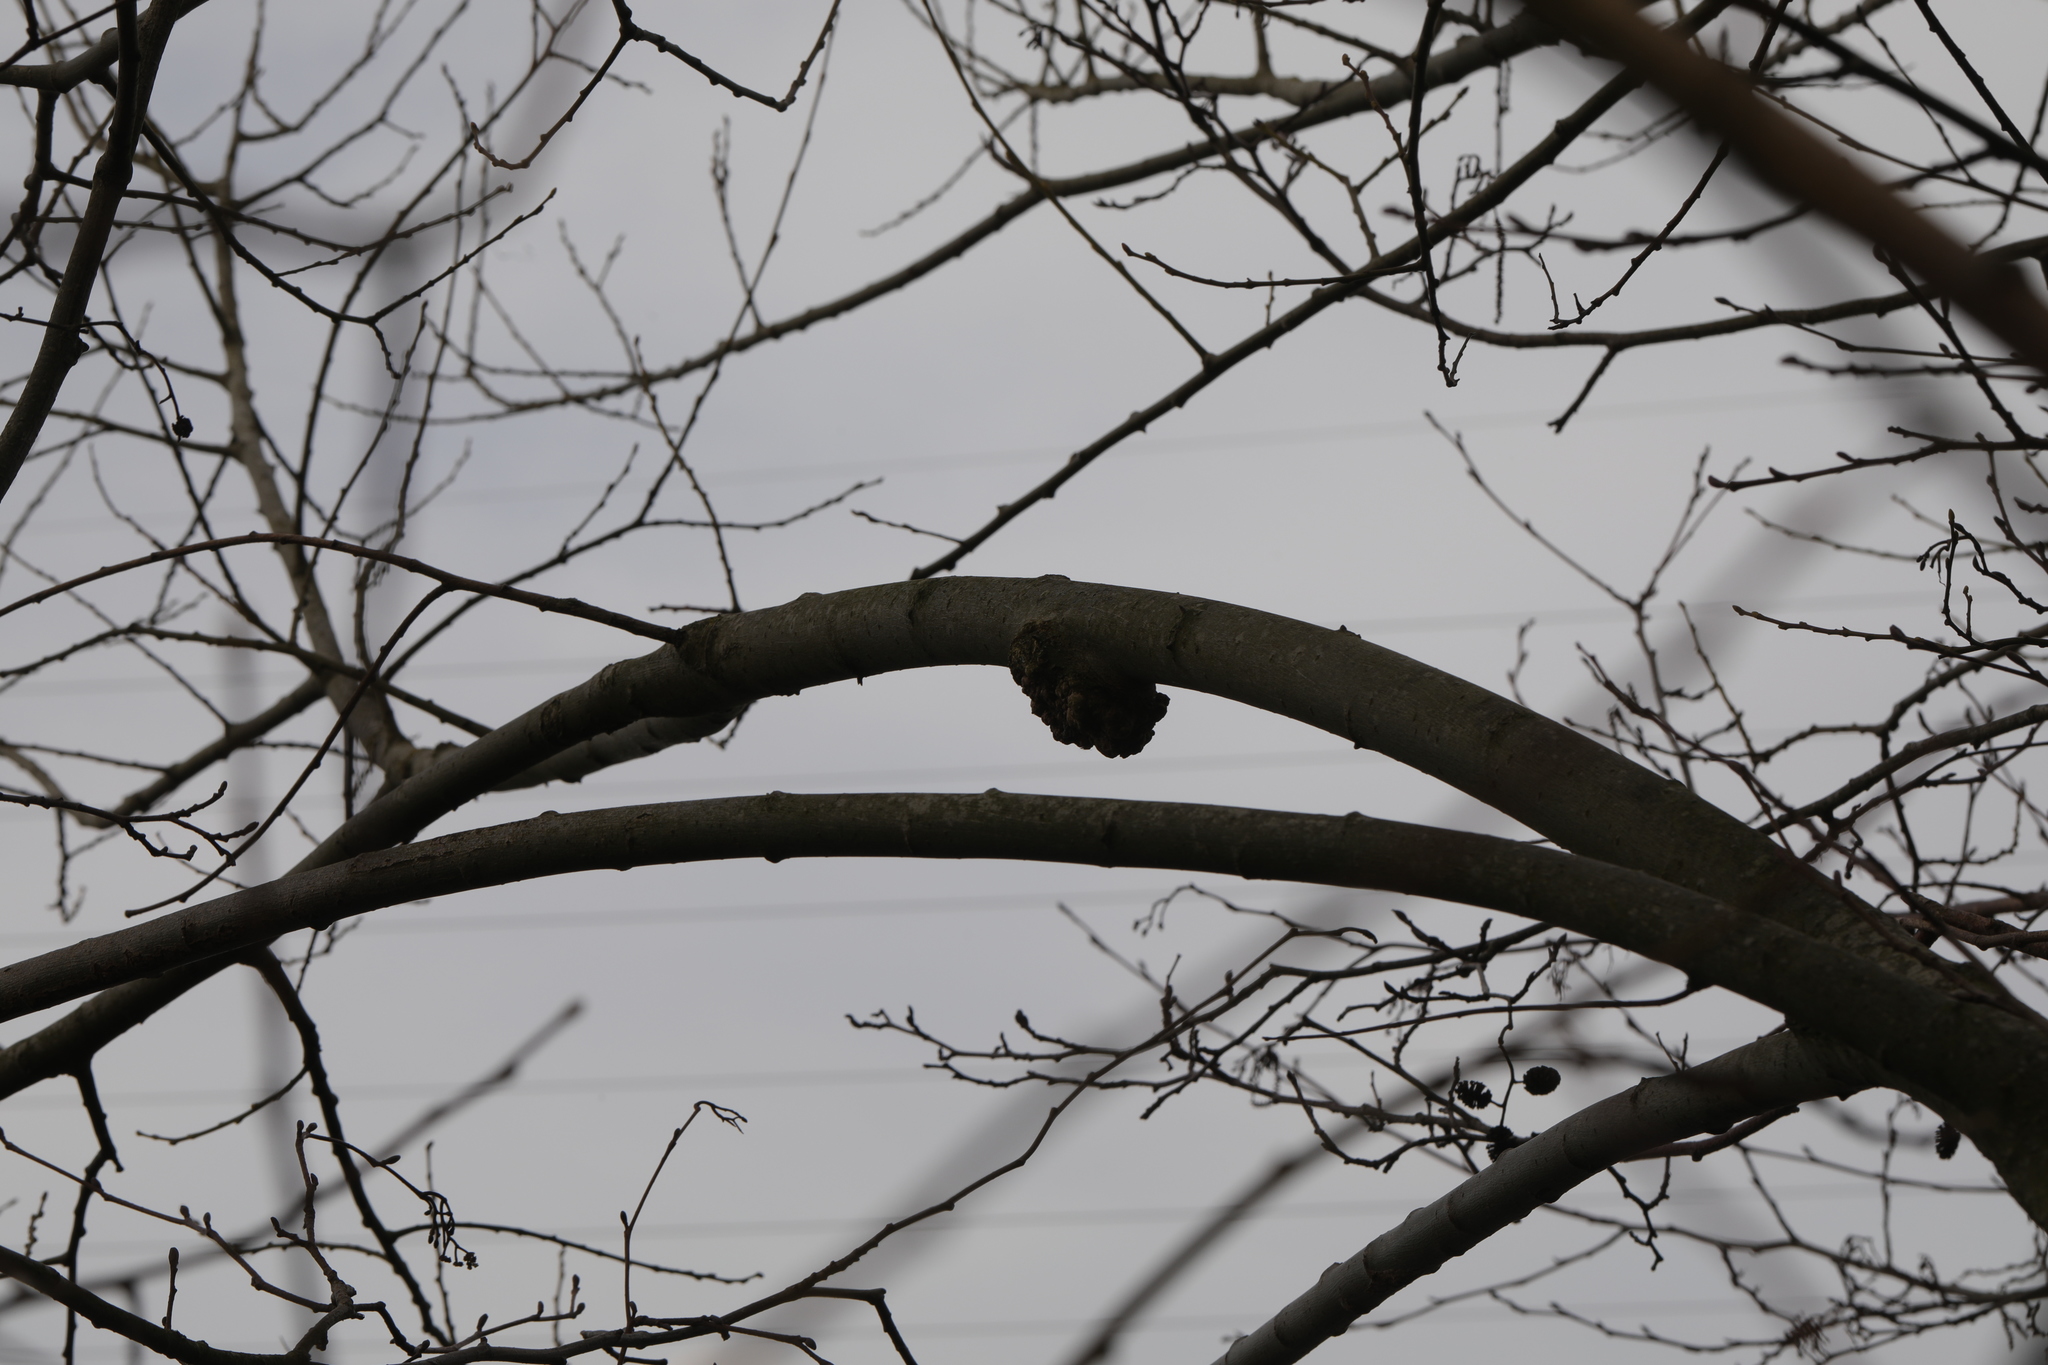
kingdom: Bacteria
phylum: Proteobacteria
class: Alphaproteobacteria
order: Rhizobiales
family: Rhizobiaceae
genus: Rhizobium
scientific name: Rhizobium Agrobacterium radiobacter
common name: Bacterial crown gall
